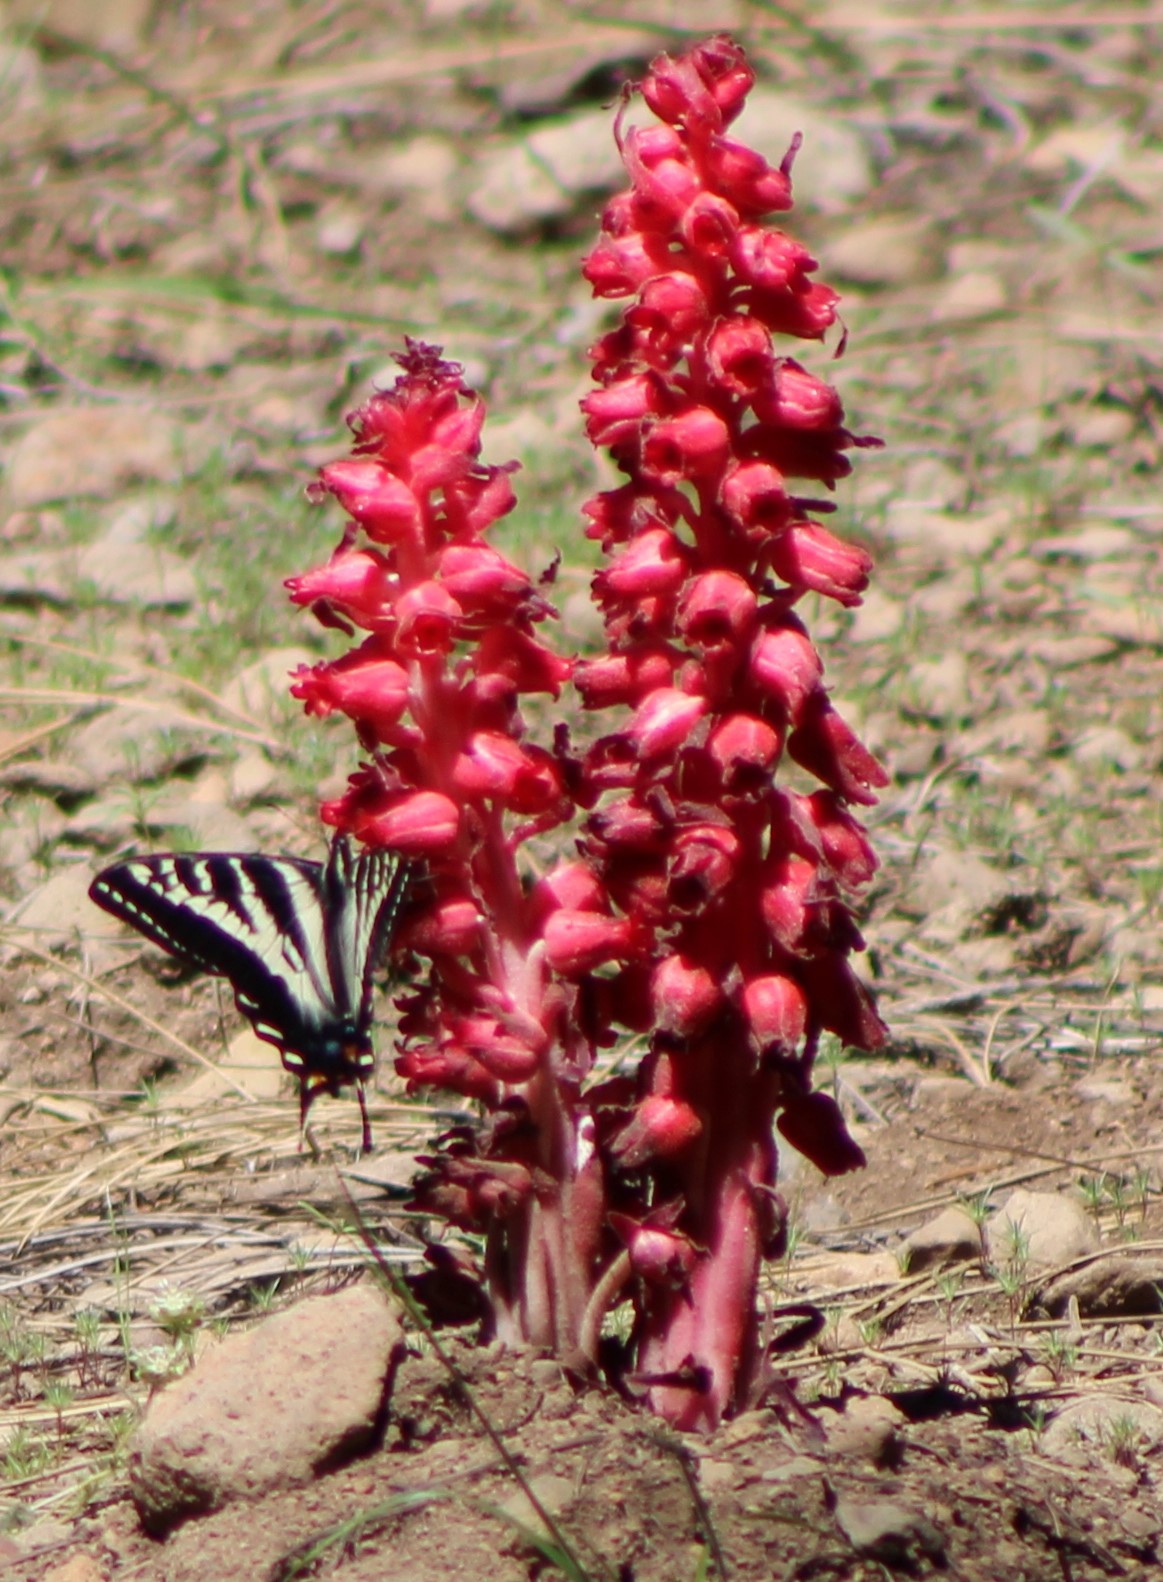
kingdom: Animalia
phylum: Arthropoda
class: Insecta
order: Lepidoptera
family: Papilionidae
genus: Papilio
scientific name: Papilio eurymedon
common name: Pale tiger swallowtail
